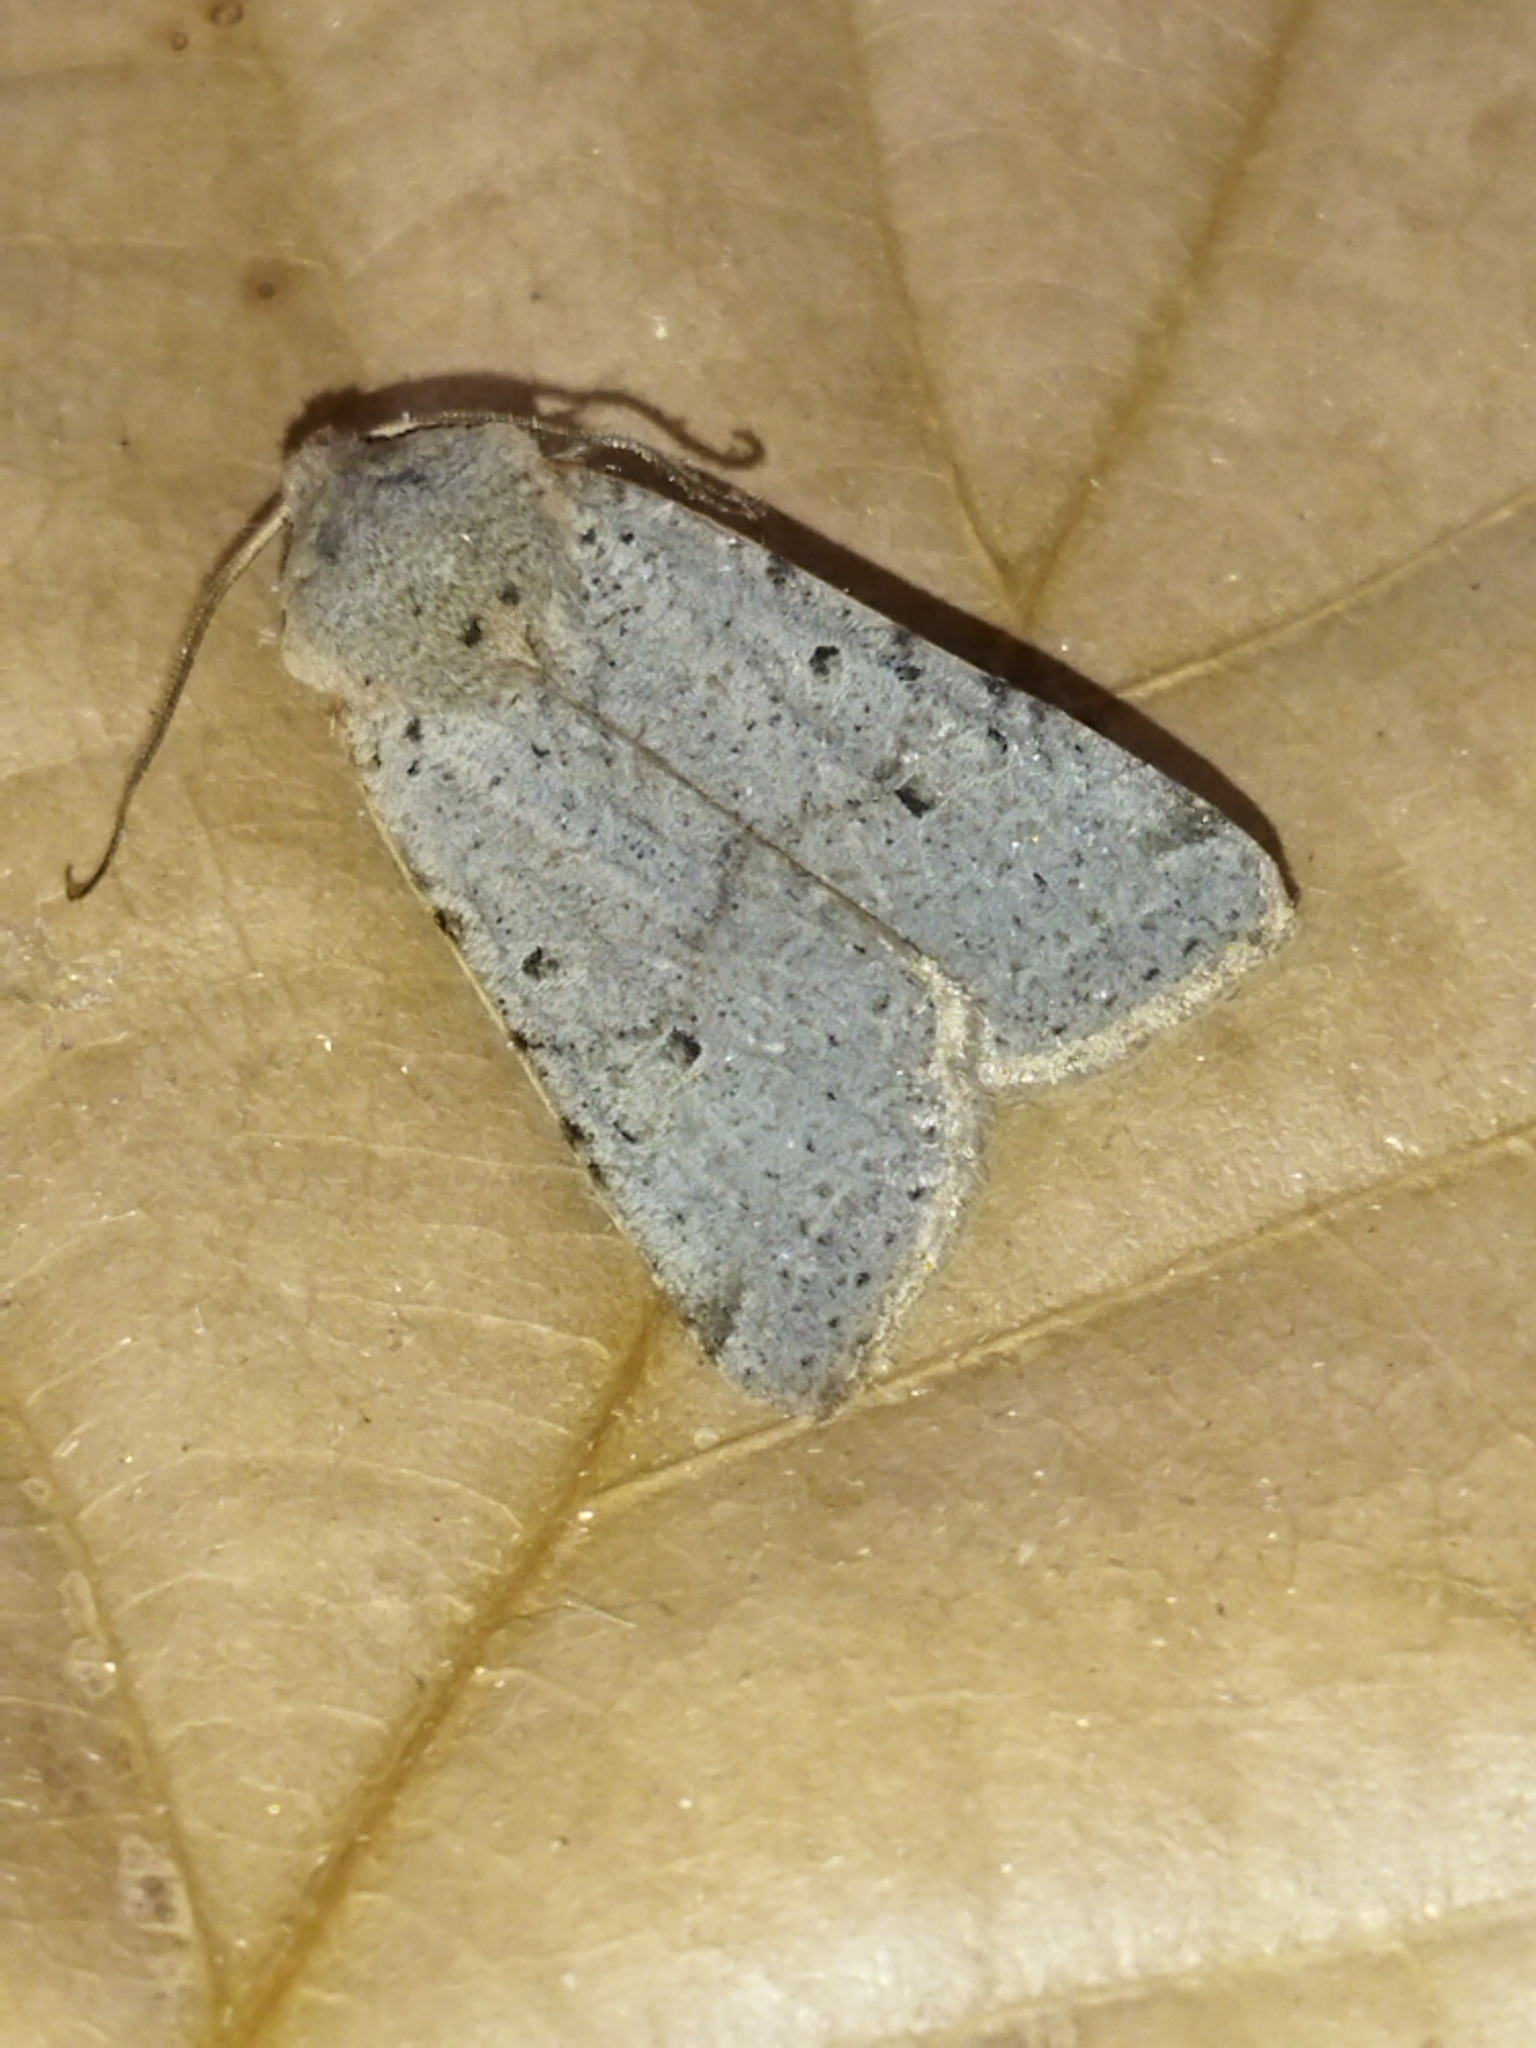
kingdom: Animalia
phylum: Arthropoda
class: Insecta
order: Lepidoptera
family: Noctuidae
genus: Agrochola
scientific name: Agrochola lychnidis
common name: Beaded chestnut
